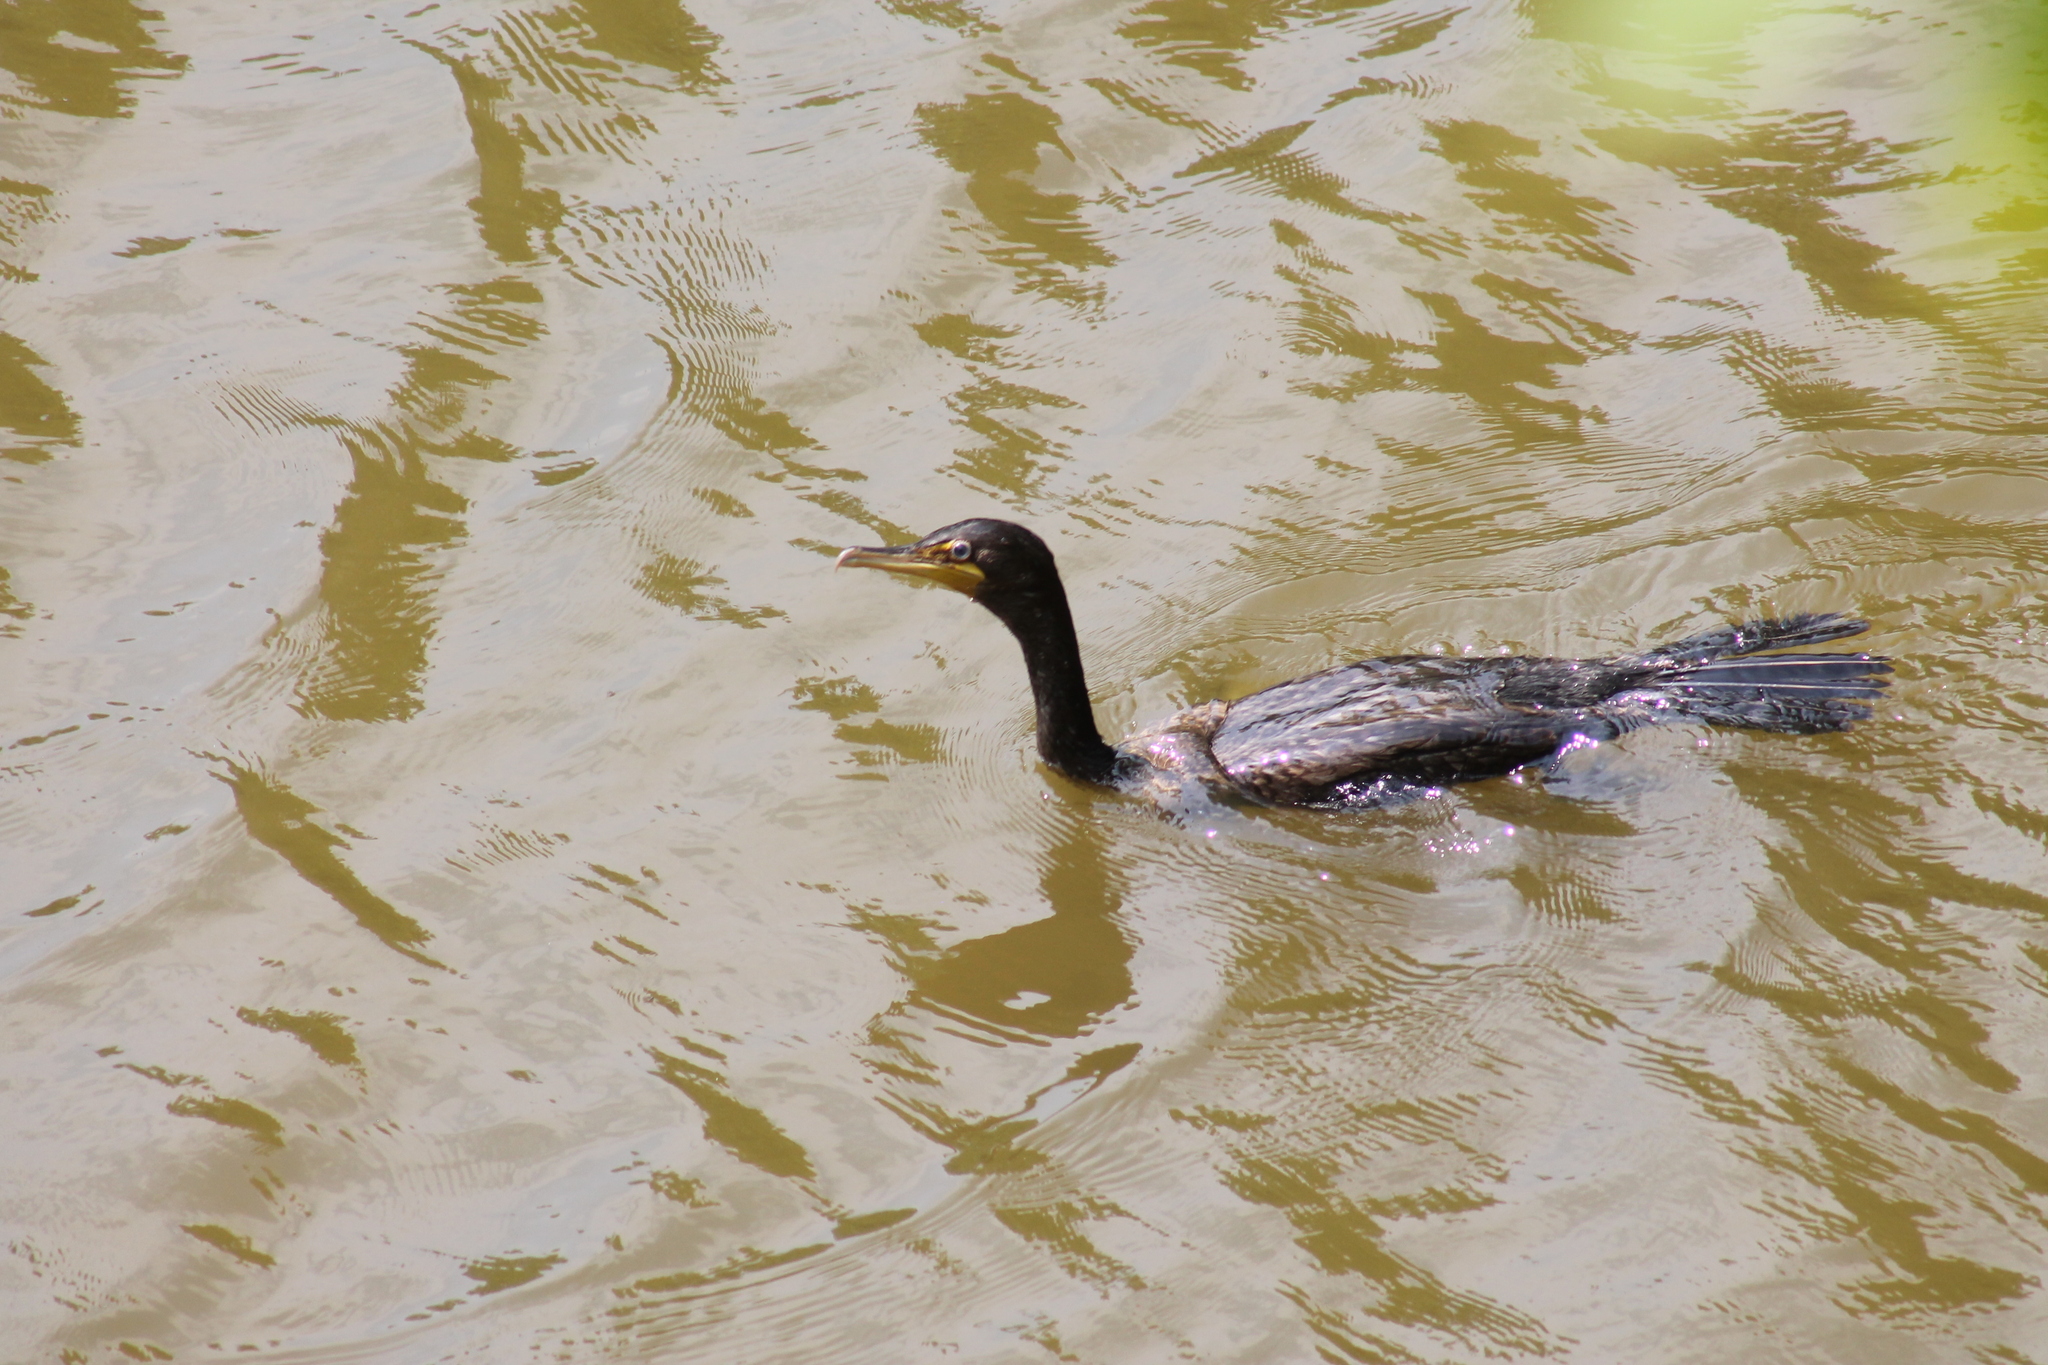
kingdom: Animalia
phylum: Chordata
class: Aves
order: Suliformes
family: Phalacrocoracidae
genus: Phalacrocorax
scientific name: Phalacrocorax auritus
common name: Double-crested cormorant
